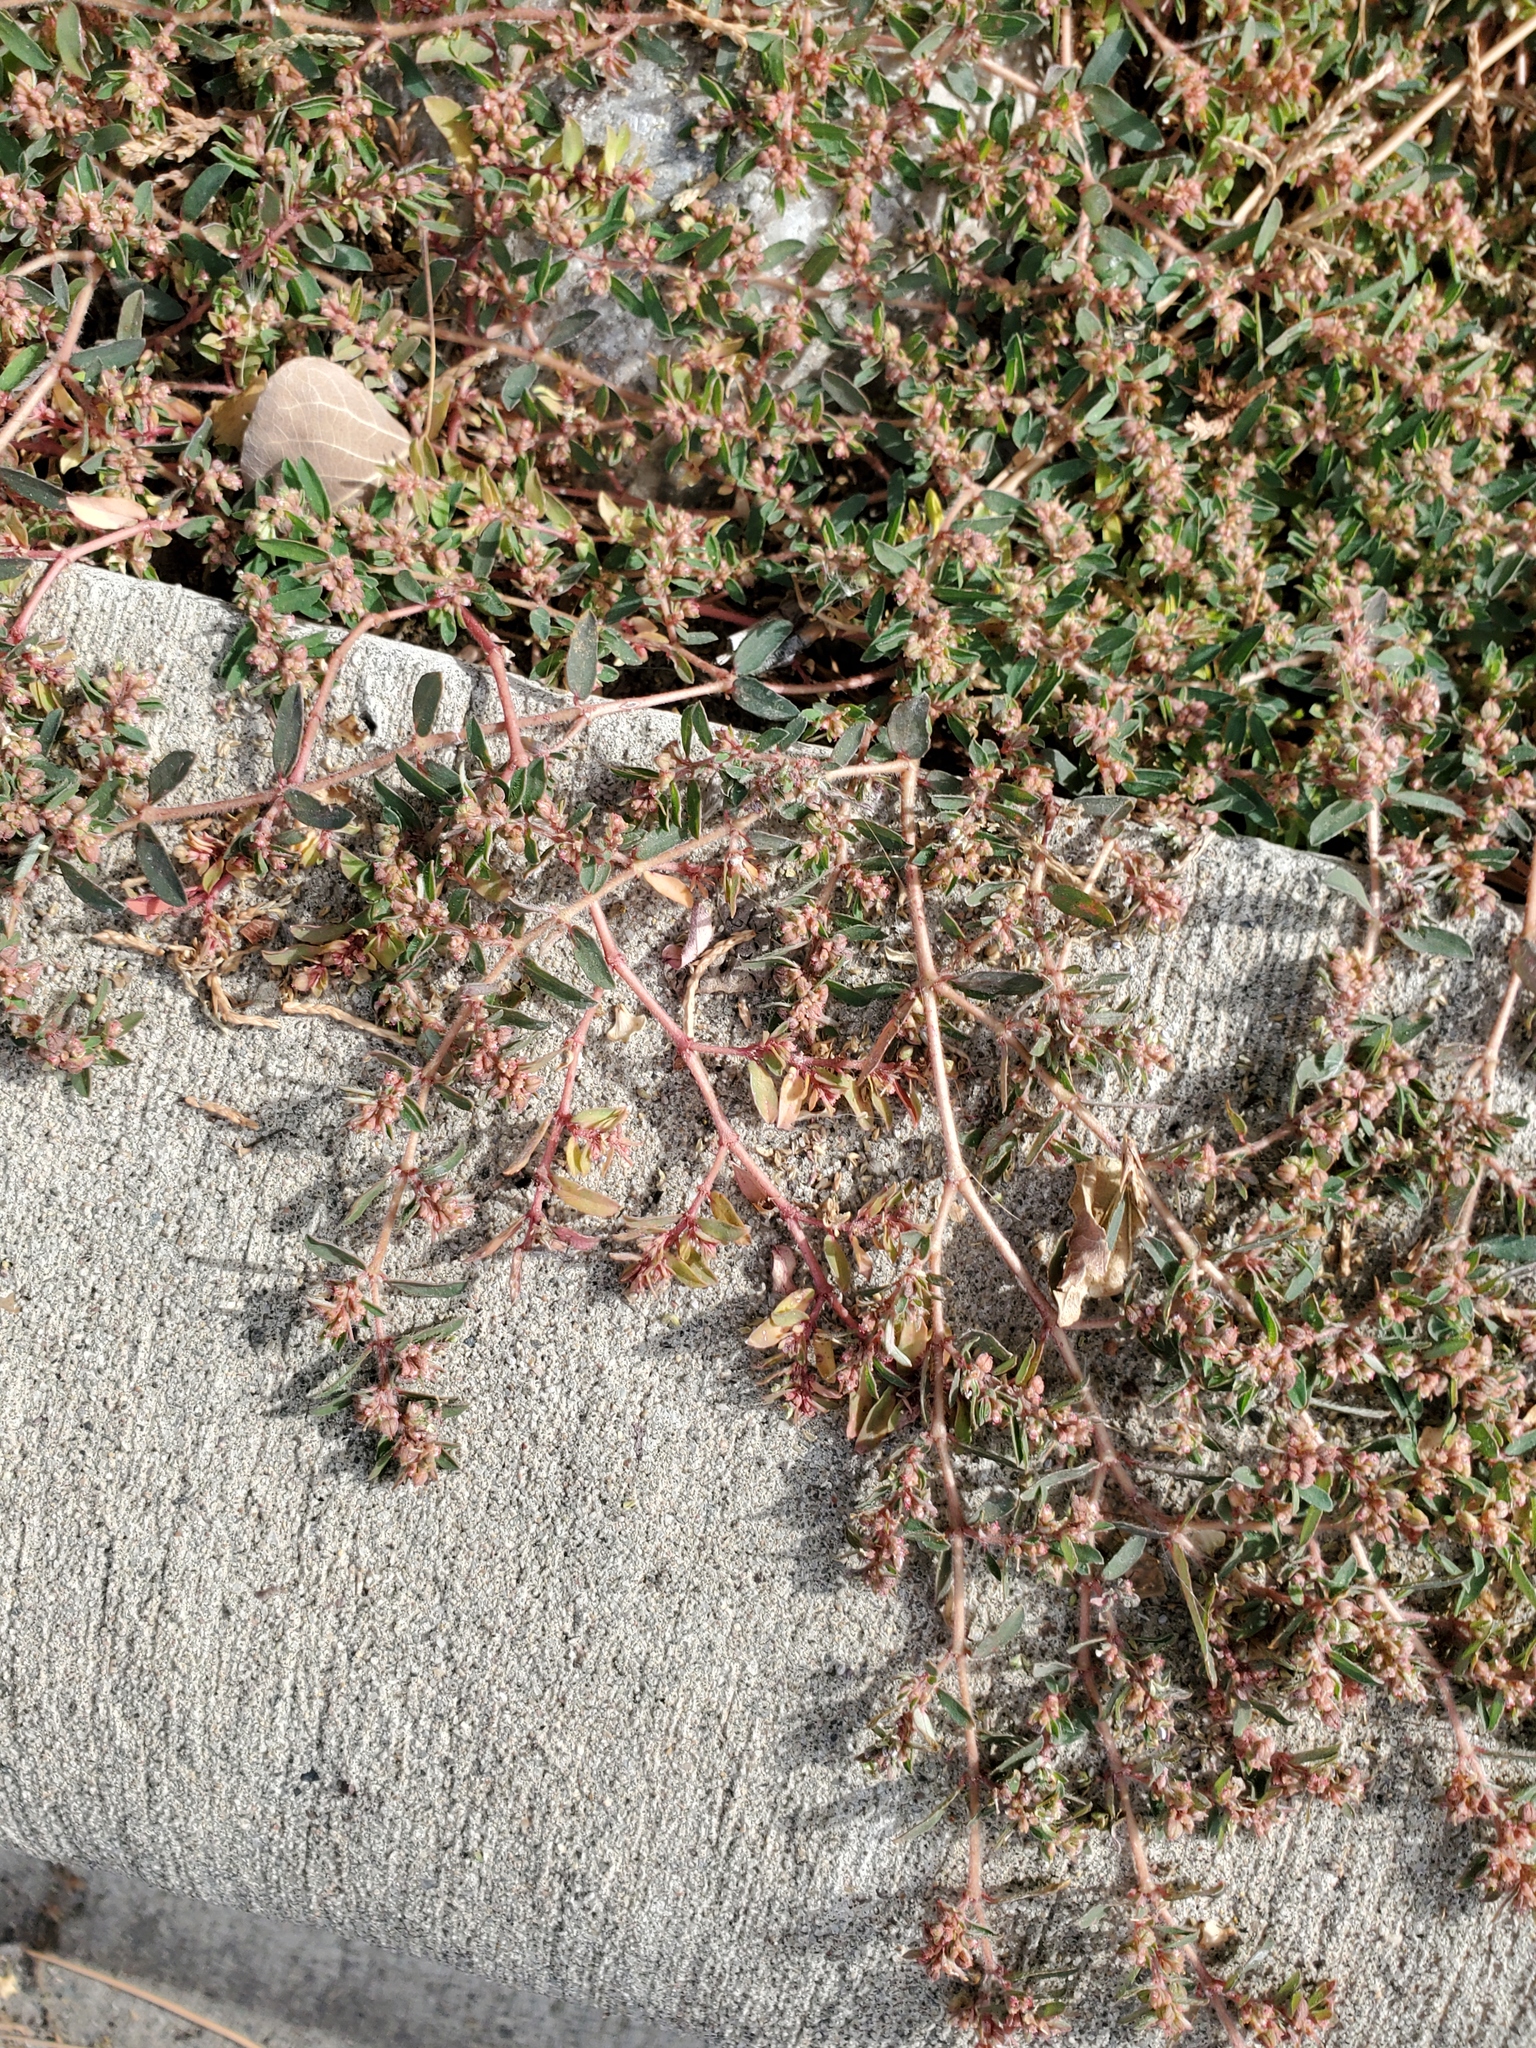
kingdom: Plantae
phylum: Tracheophyta
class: Magnoliopsida
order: Malpighiales
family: Euphorbiaceae
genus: Euphorbia
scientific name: Euphorbia maculata
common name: Spotted spurge
